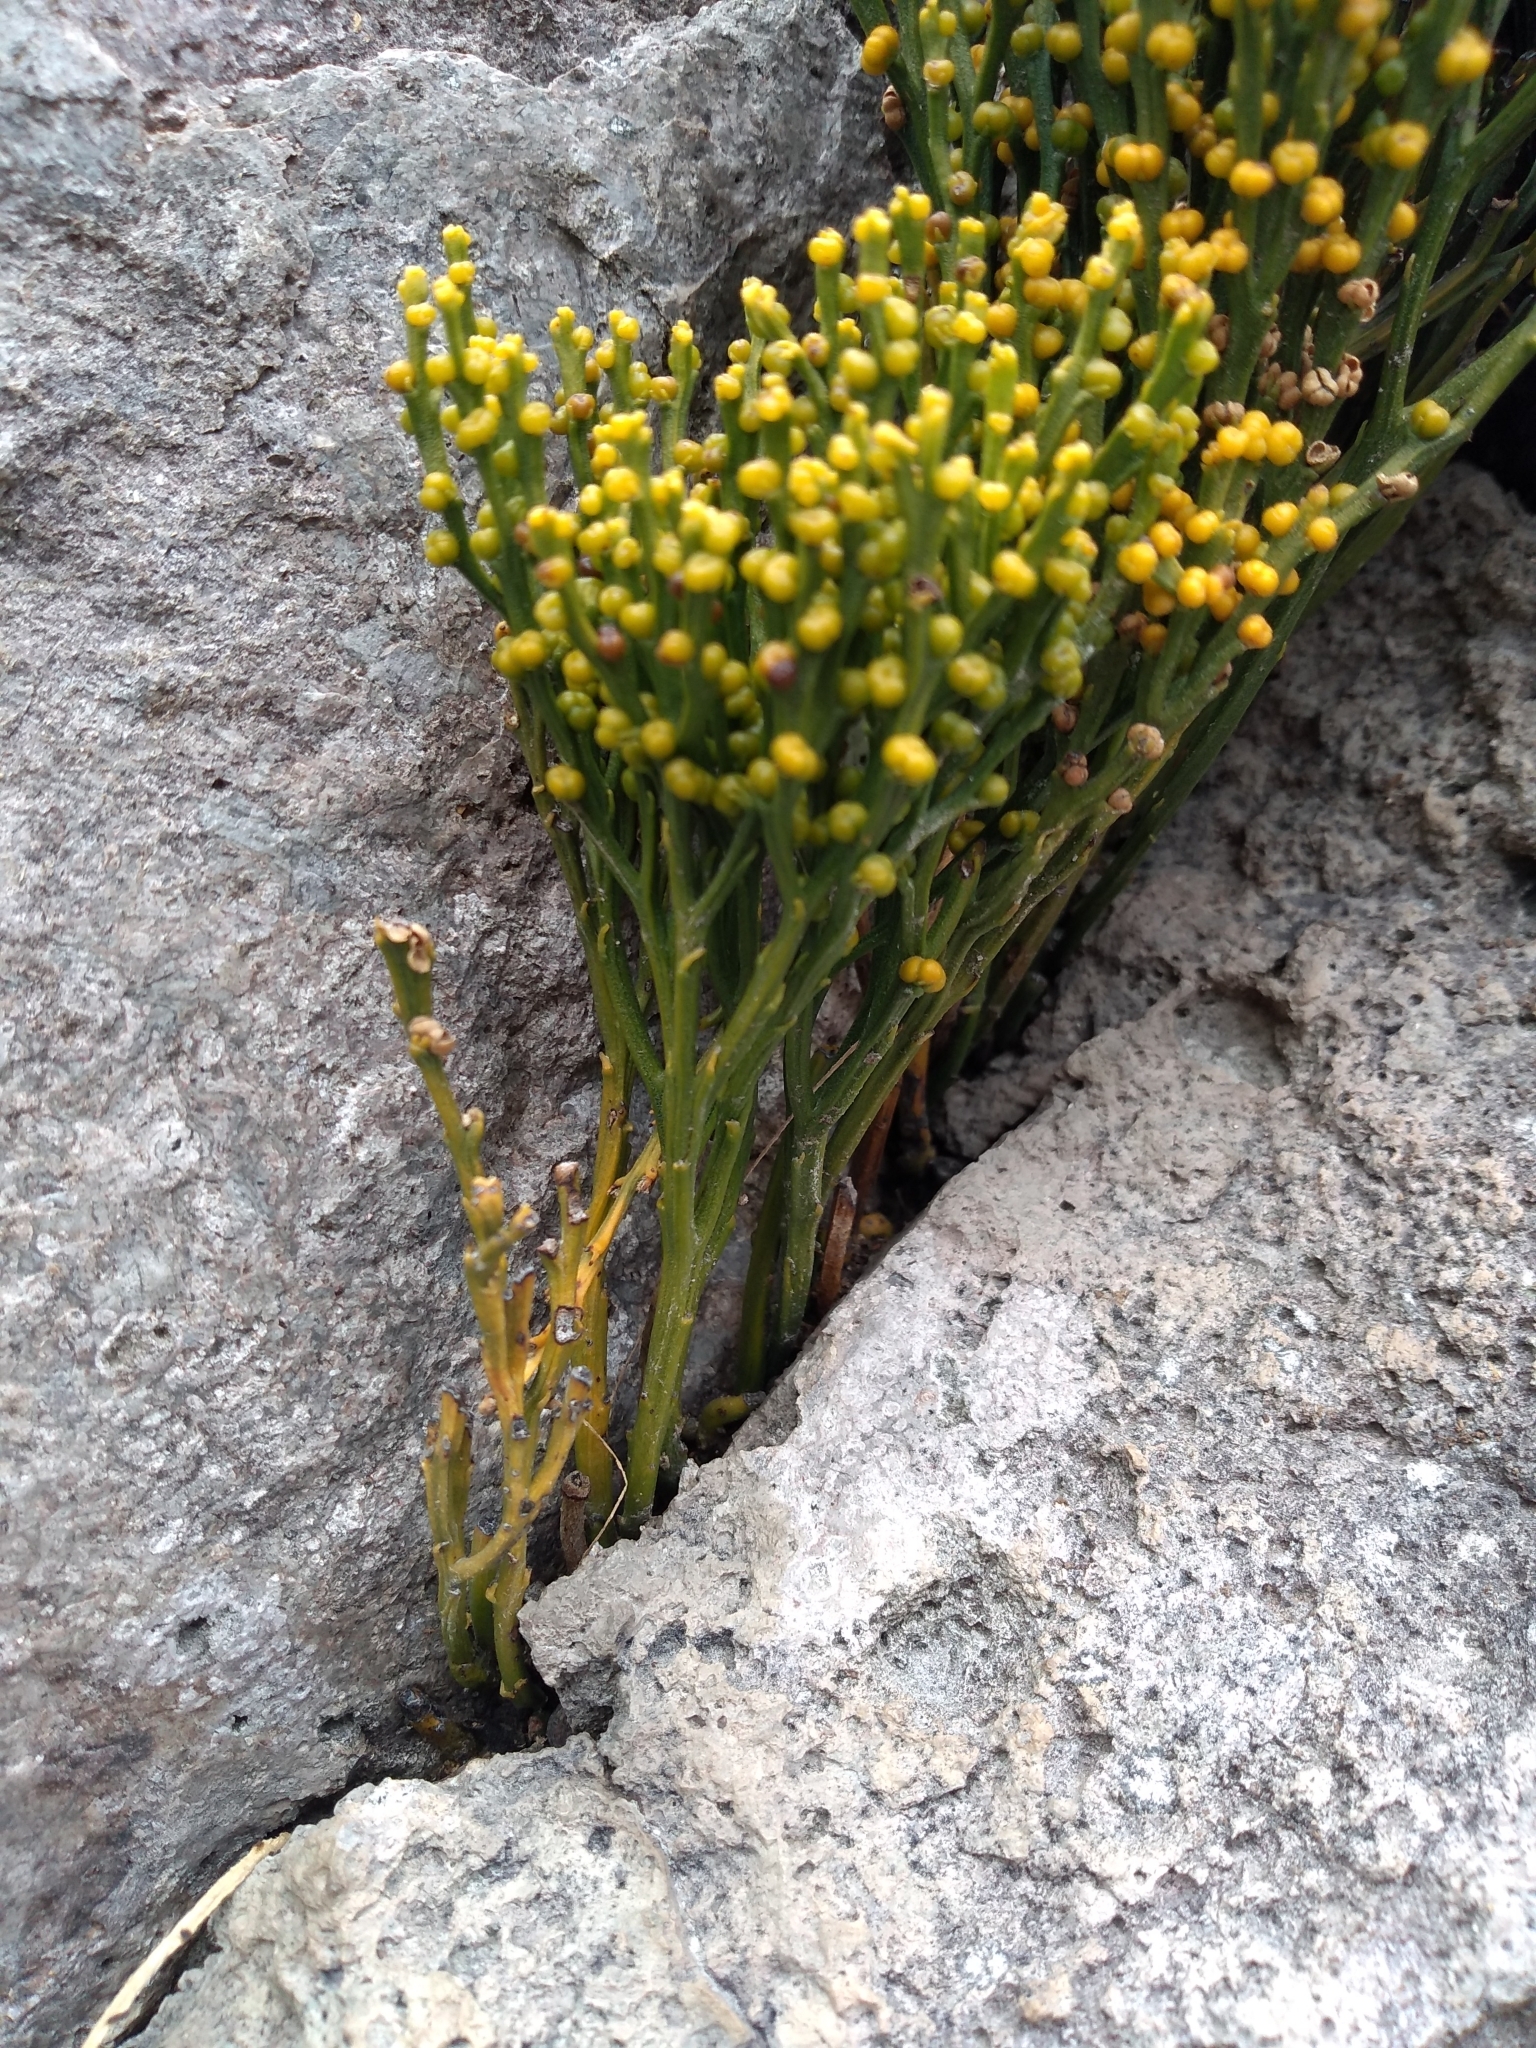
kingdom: Plantae
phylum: Tracheophyta
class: Polypodiopsida
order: Psilotales
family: Psilotaceae
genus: Psilotum
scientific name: Psilotum nudum
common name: Skeleton fork fern
